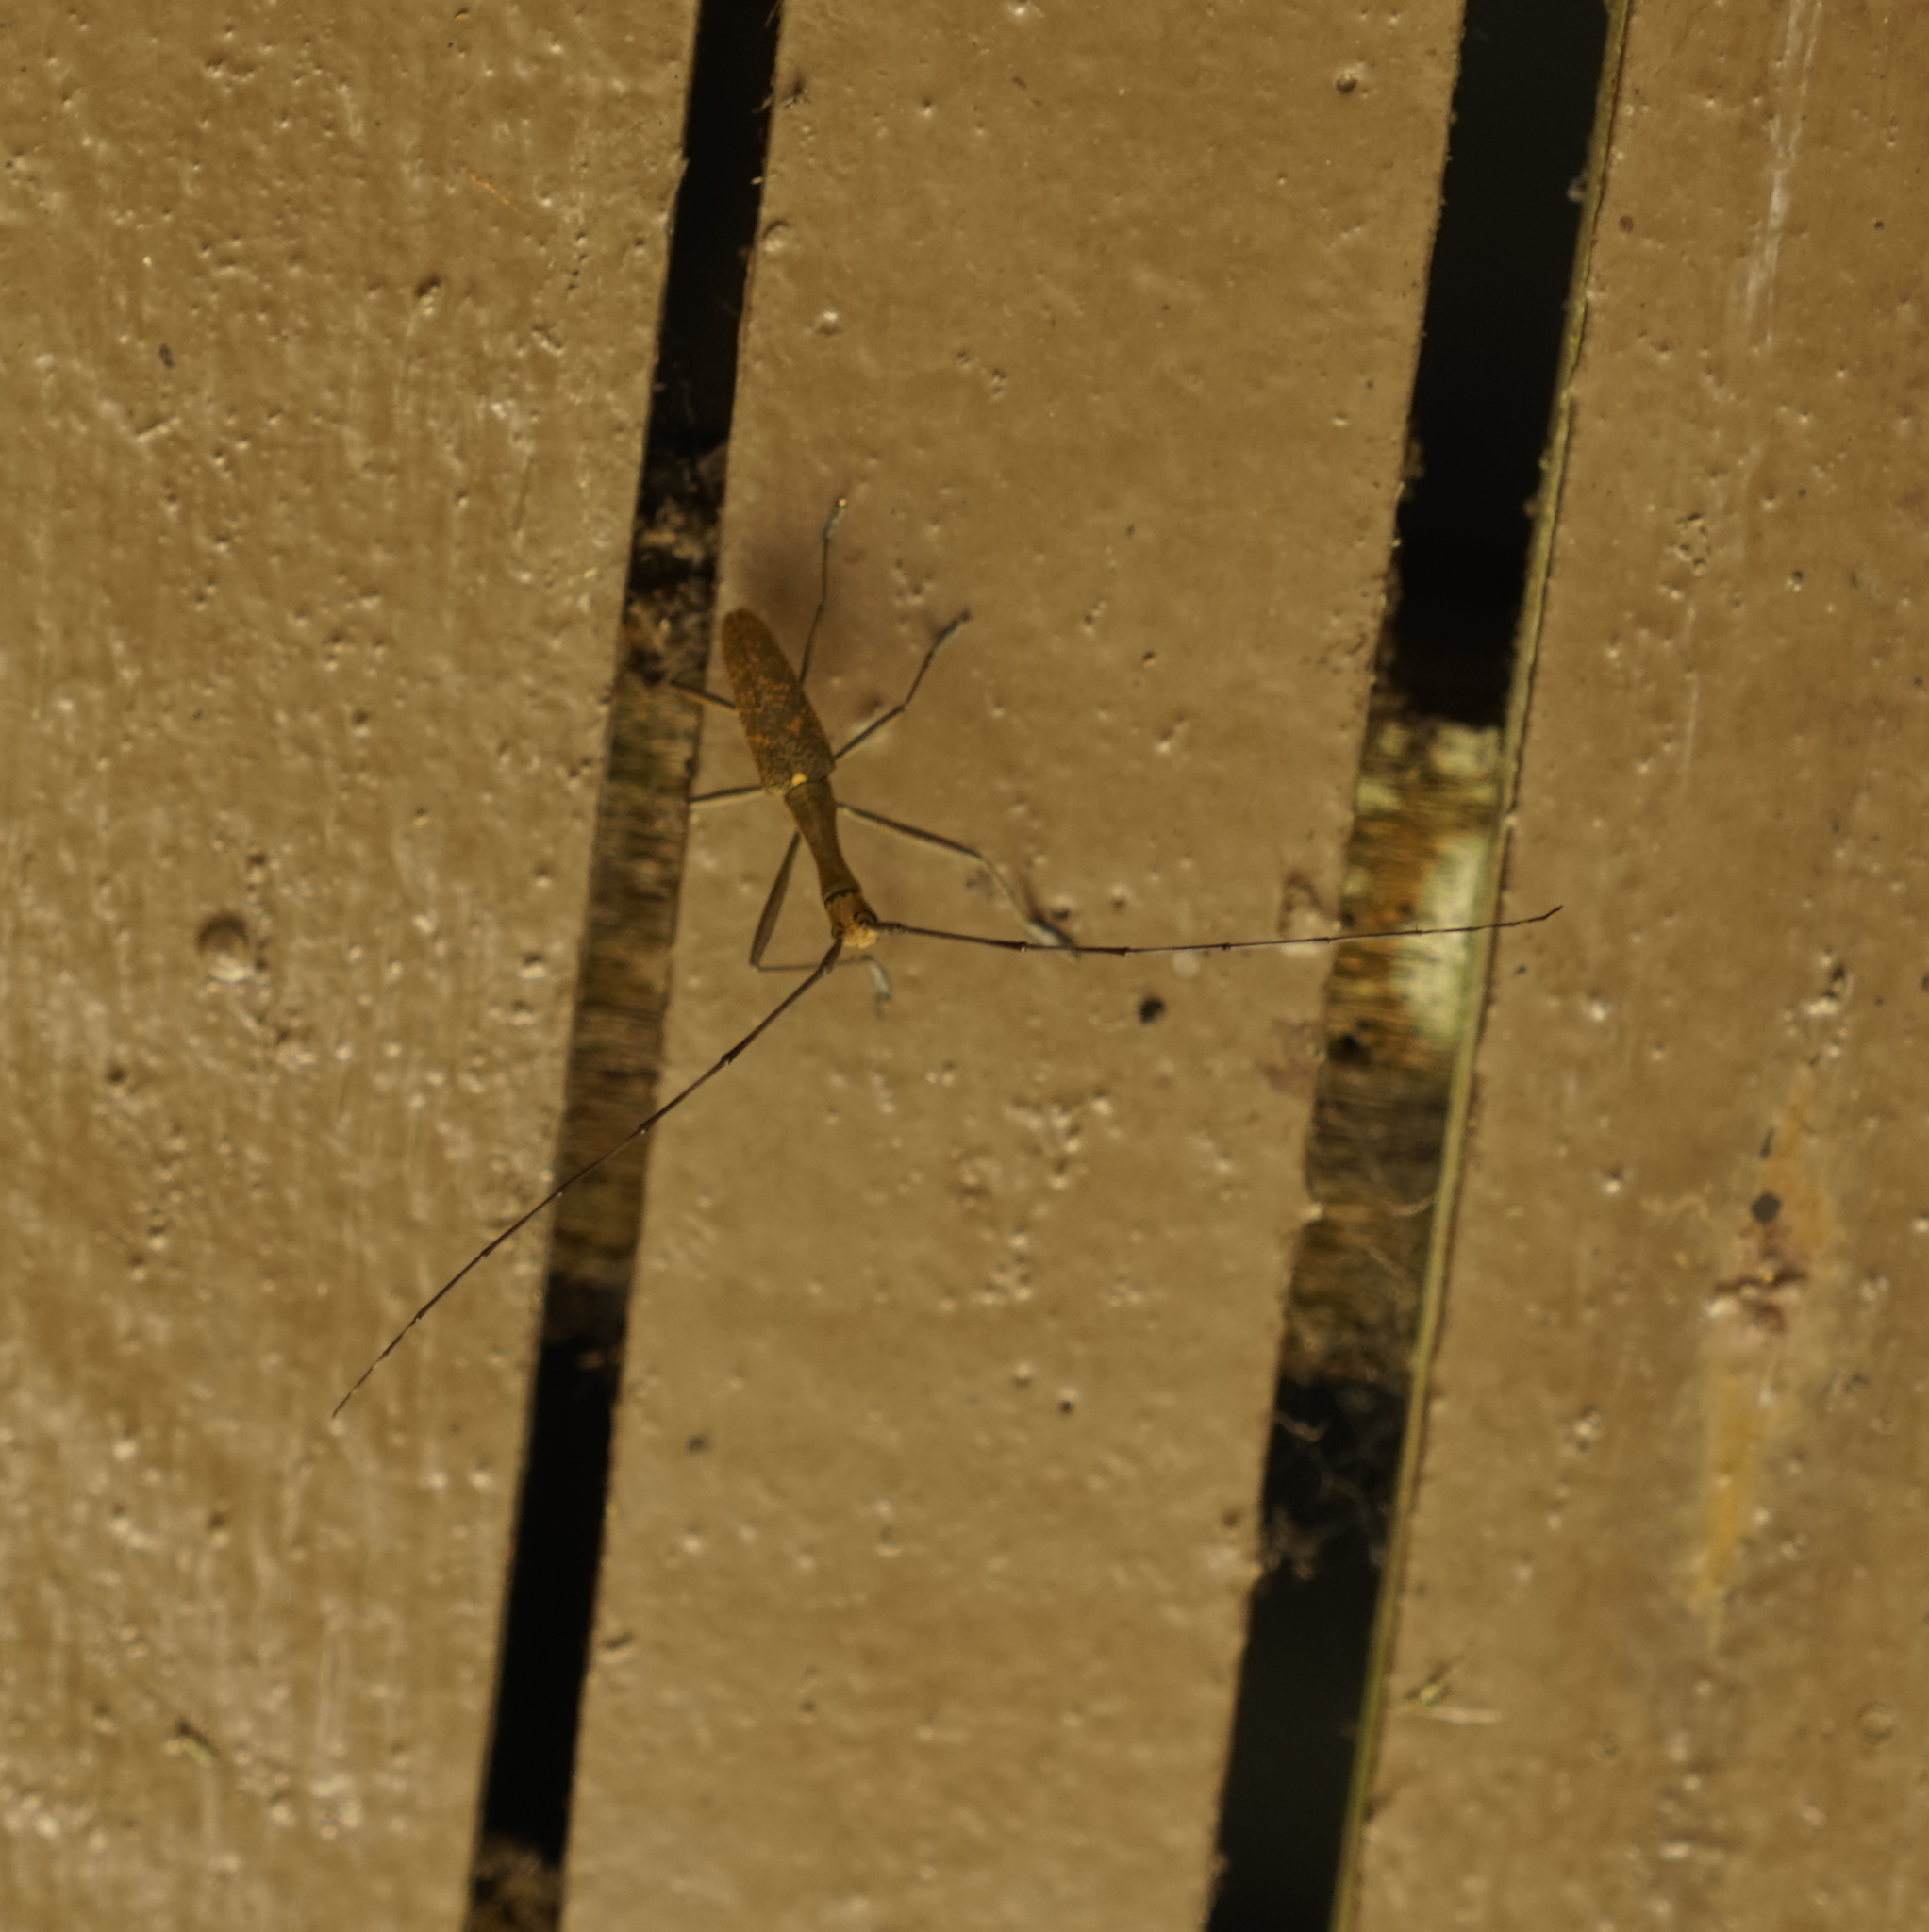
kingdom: Animalia
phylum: Arthropoda
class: Insecta
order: Coleoptera
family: Cerambycidae
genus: Gnoma
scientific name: Gnoma longicollis
